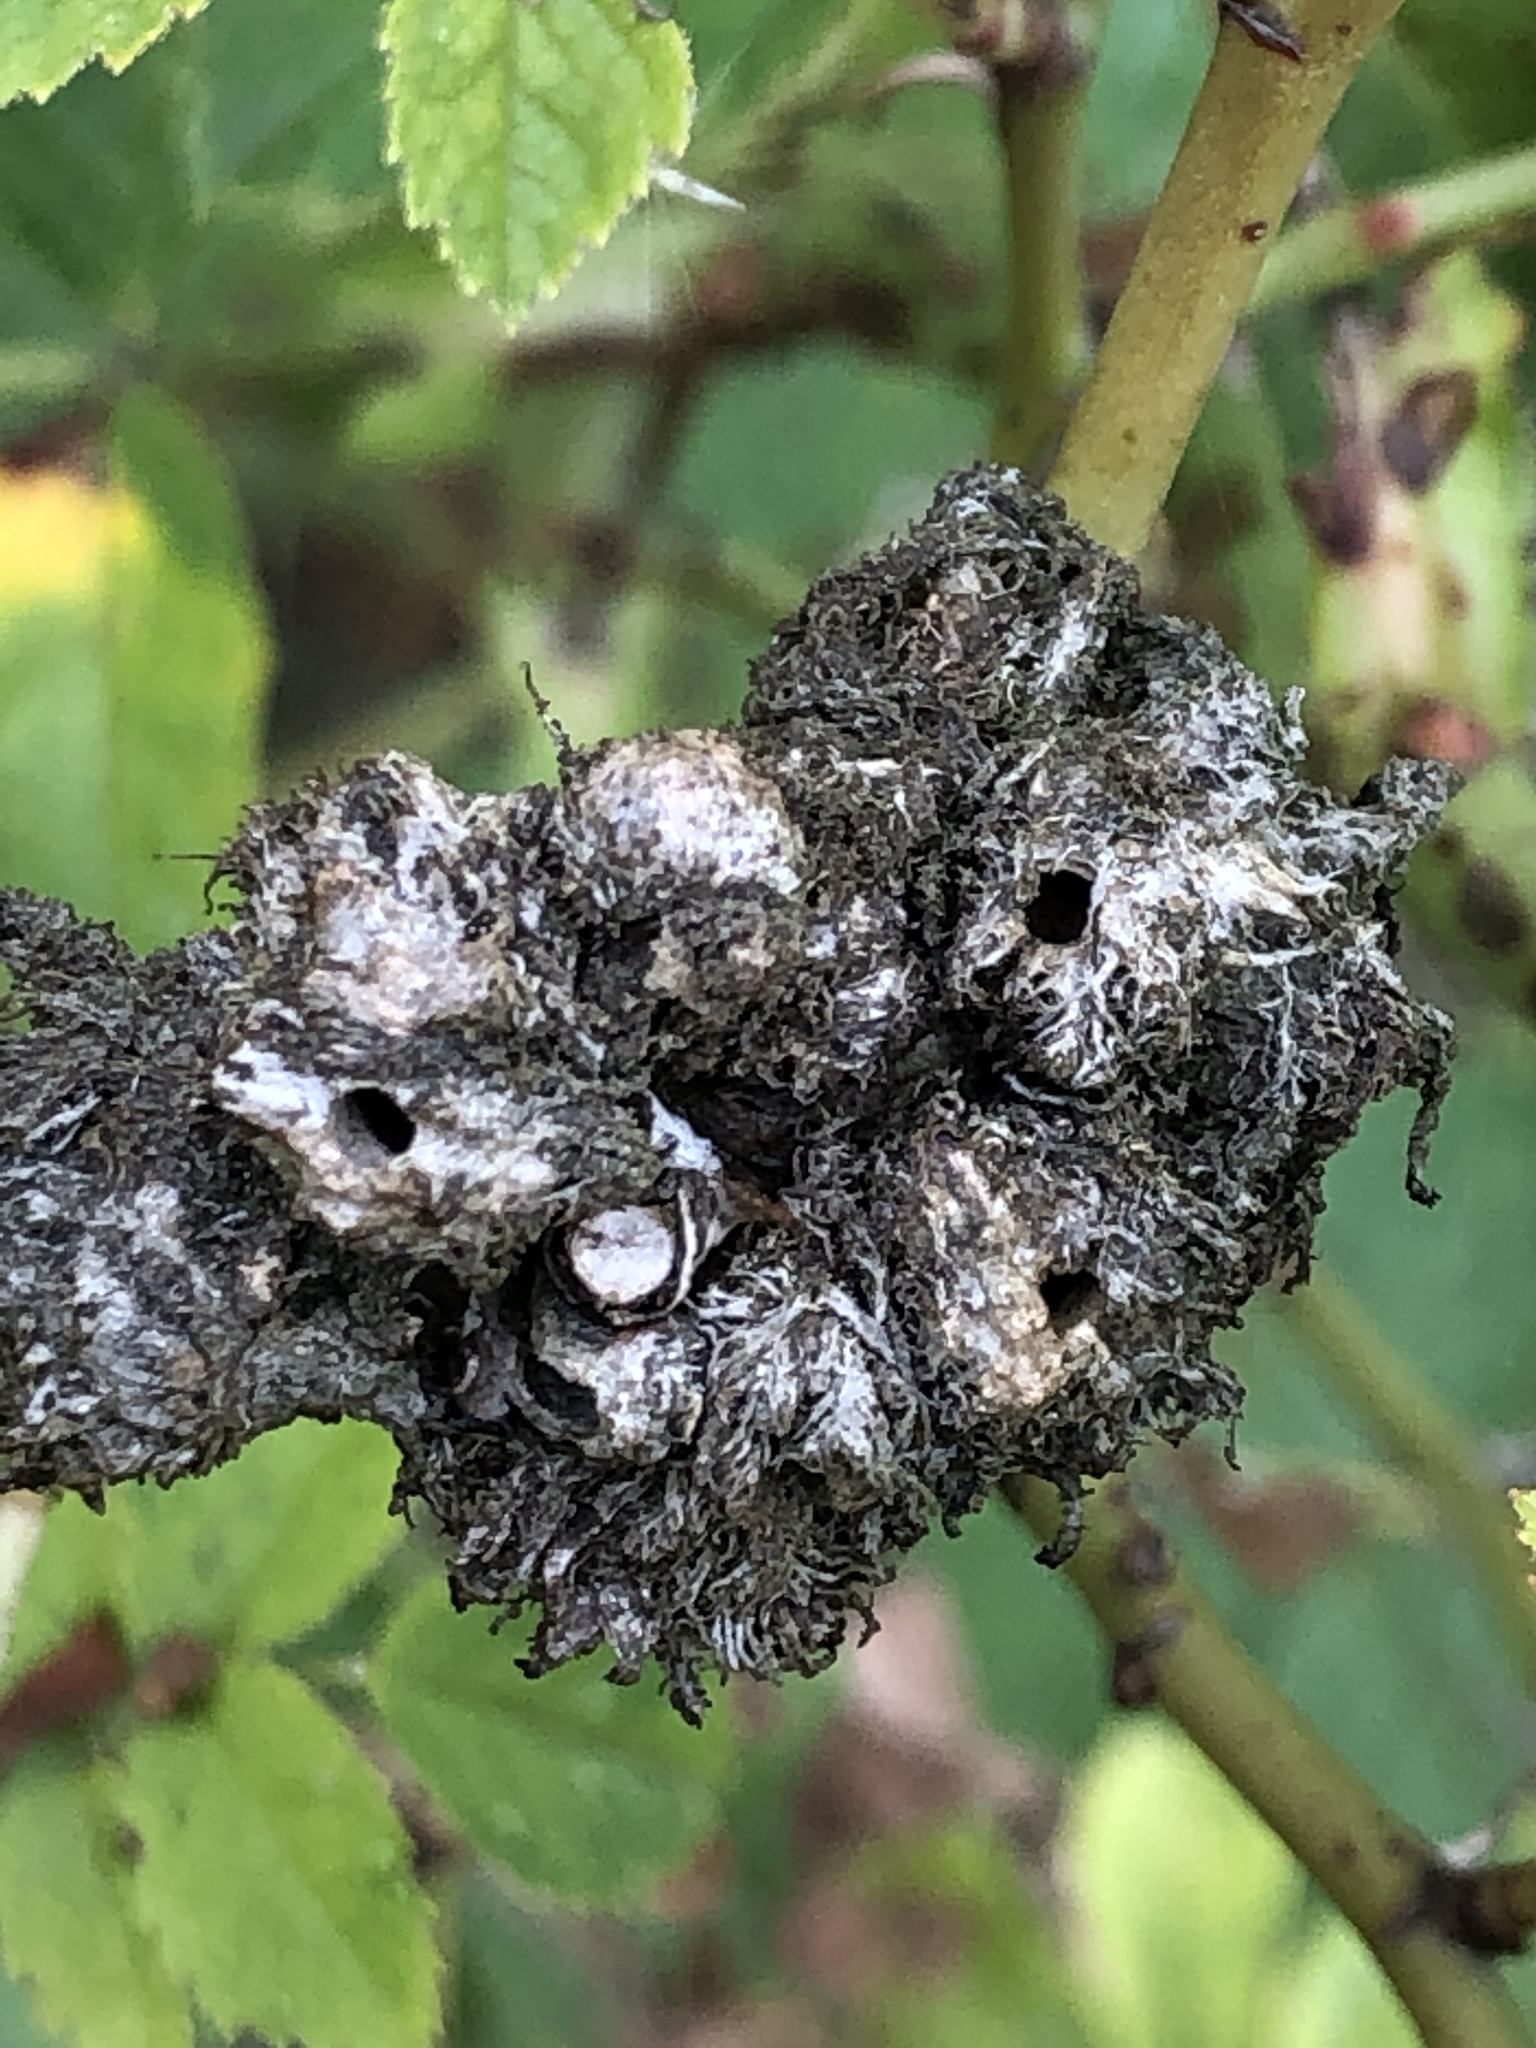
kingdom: Animalia
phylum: Arthropoda
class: Insecta
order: Hymenoptera
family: Cynipidae
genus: Diplolepis
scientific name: Diplolepis rosae
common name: Bedeguar gall
